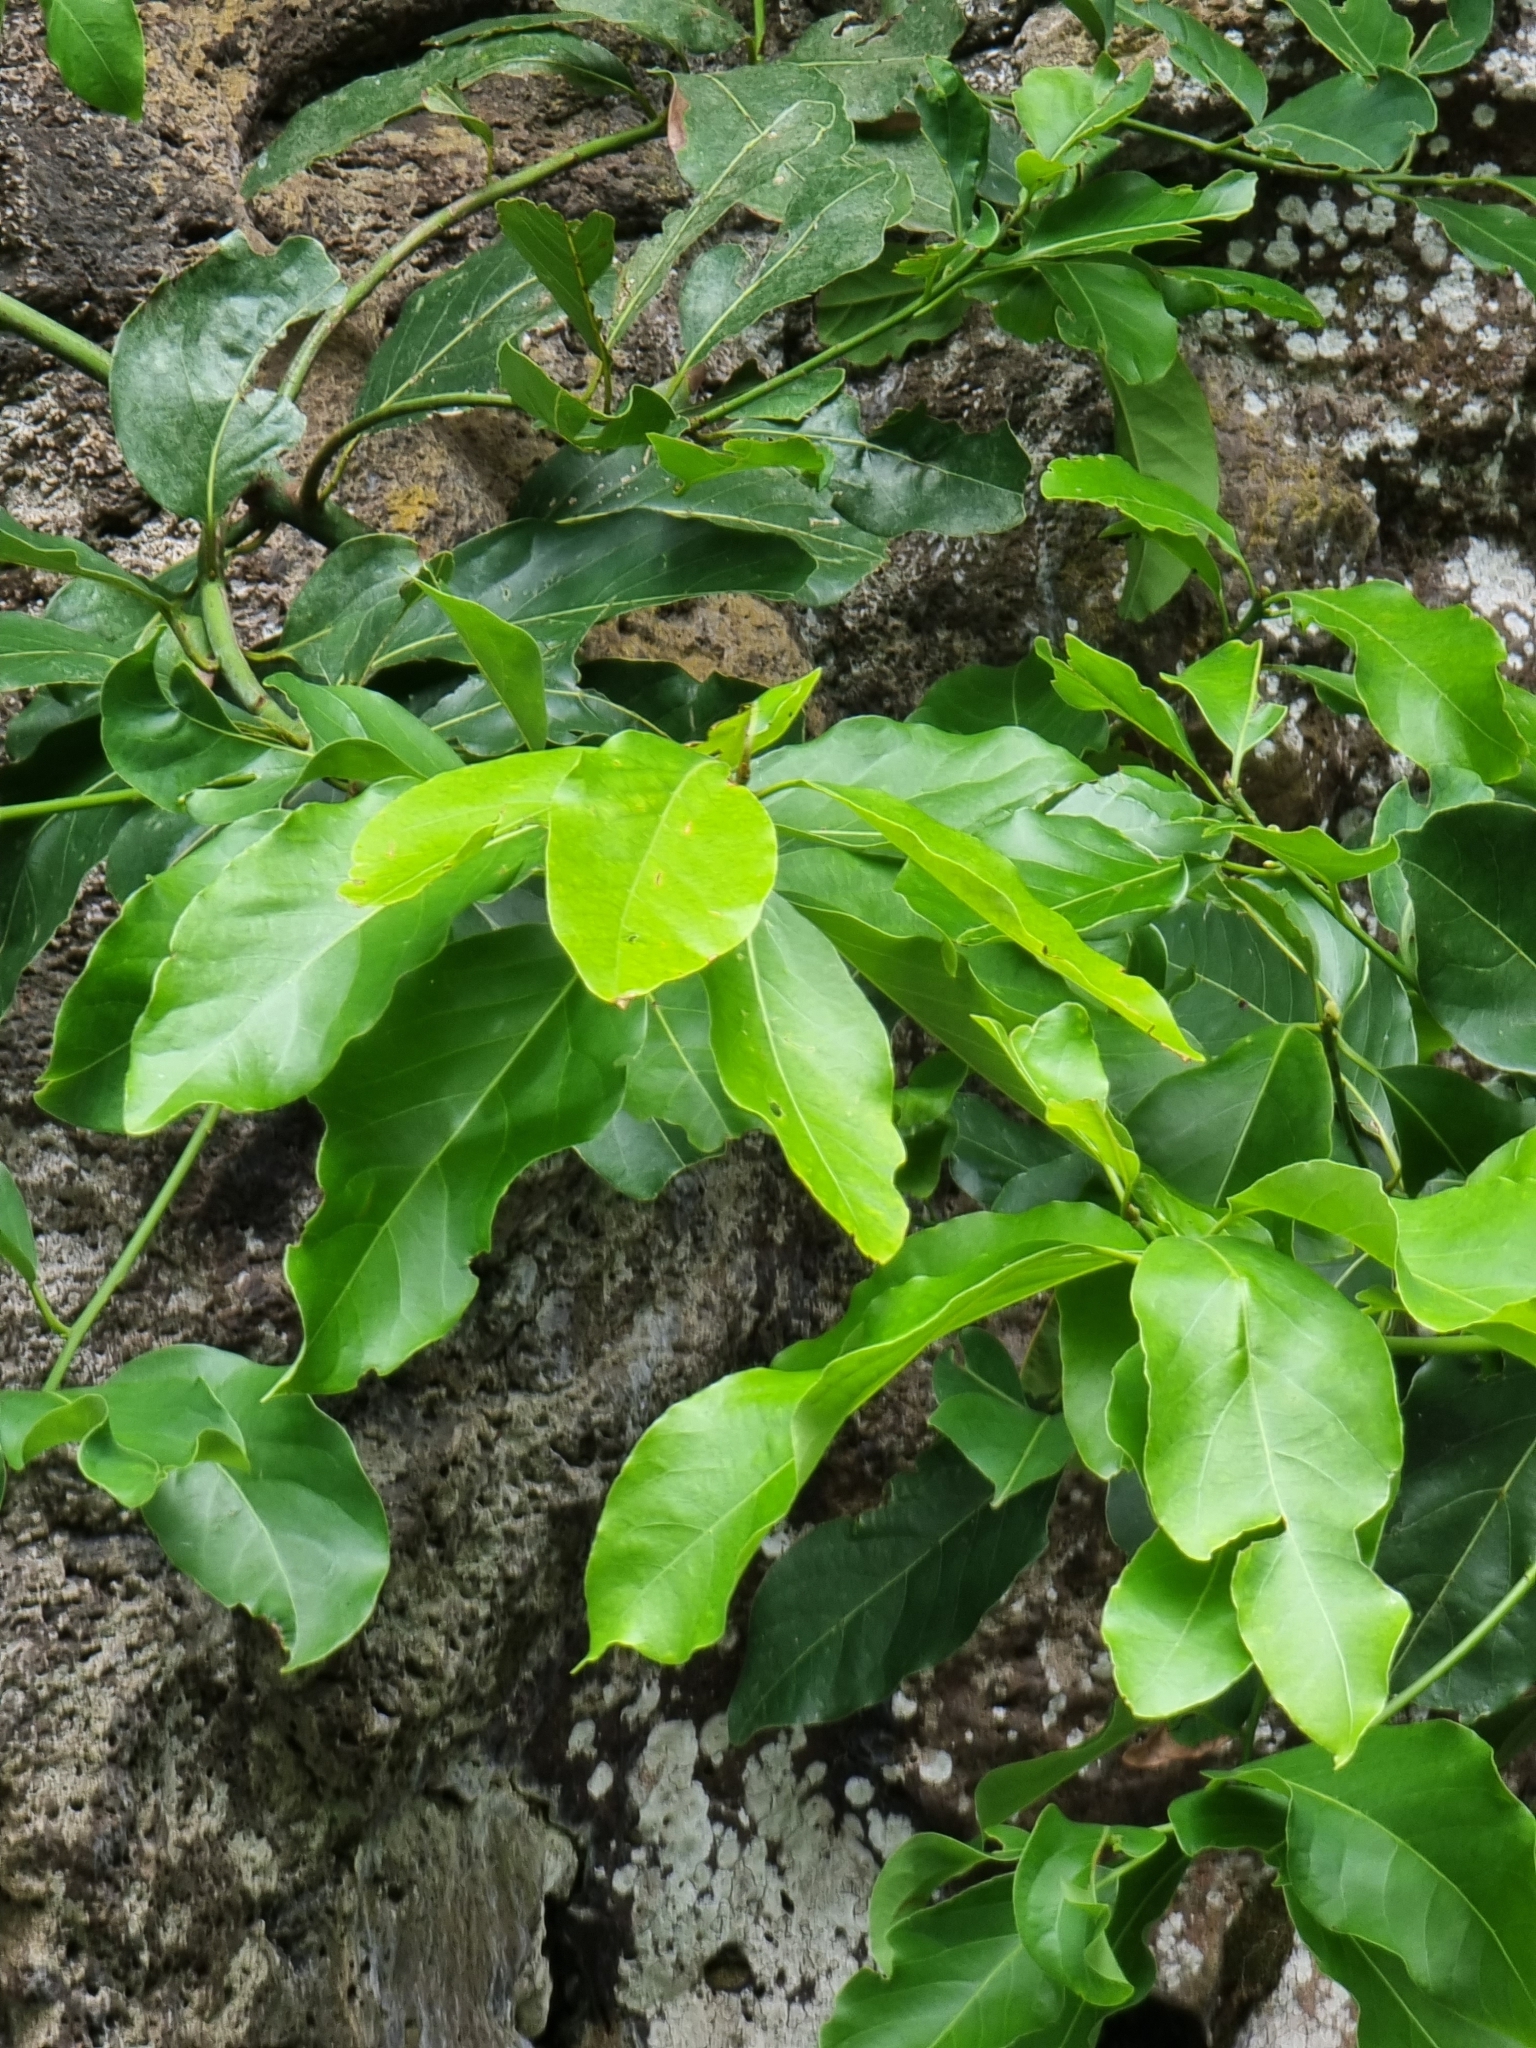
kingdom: Plantae
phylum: Tracheophyta
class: Magnoliopsida
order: Laurales
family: Lauraceae
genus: Laurus
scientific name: Laurus novocanariensis
